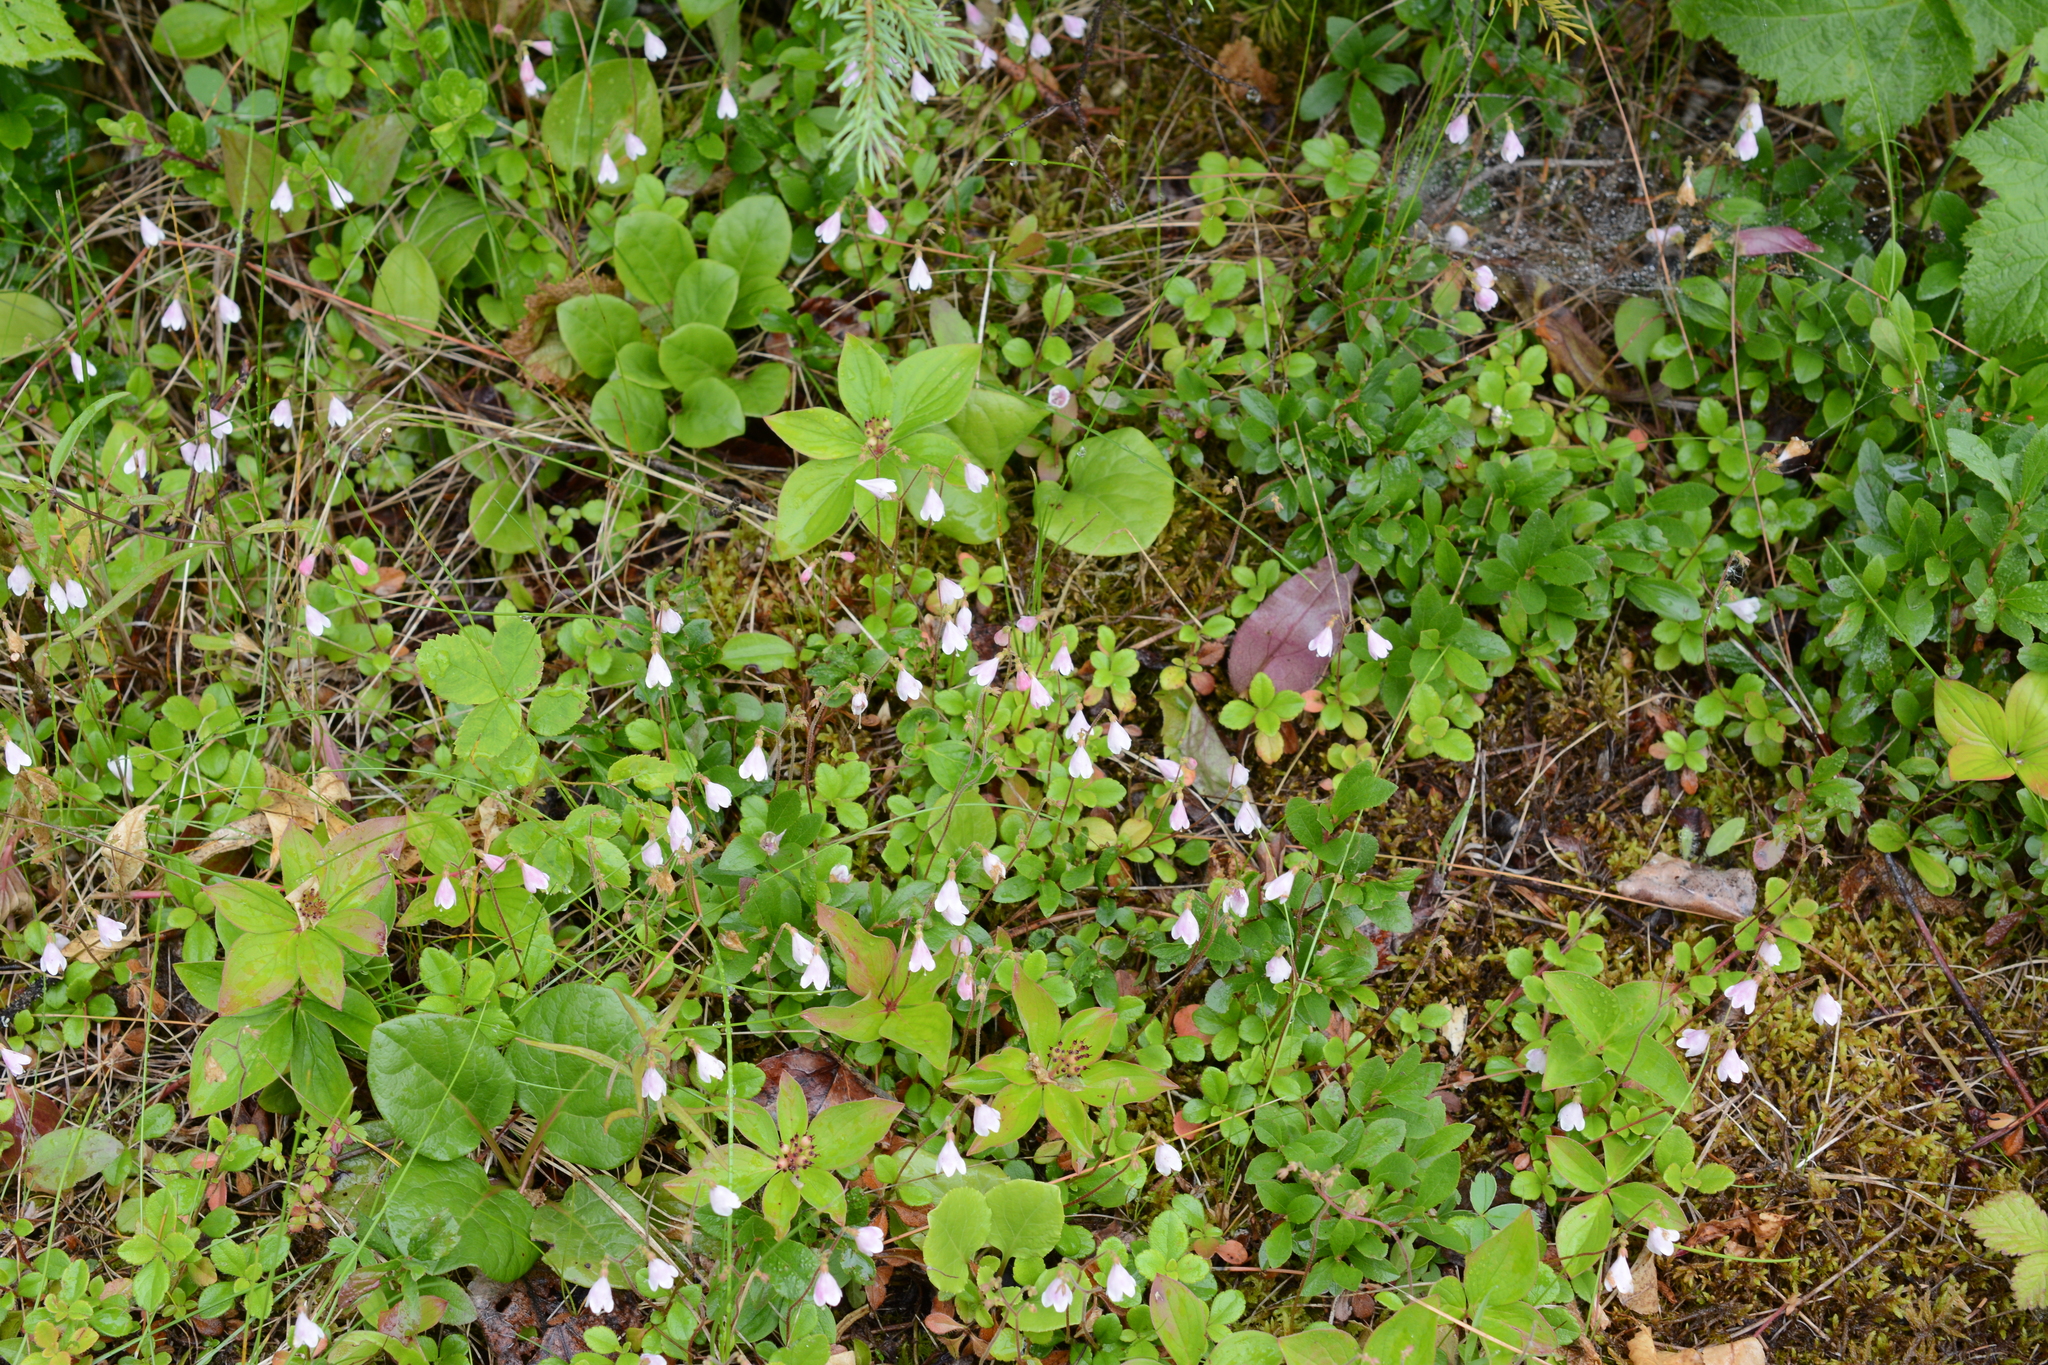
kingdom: Plantae
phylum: Tracheophyta
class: Magnoliopsida
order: Dipsacales
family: Caprifoliaceae
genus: Linnaea
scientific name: Linnaea borealis
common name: Twinflower
